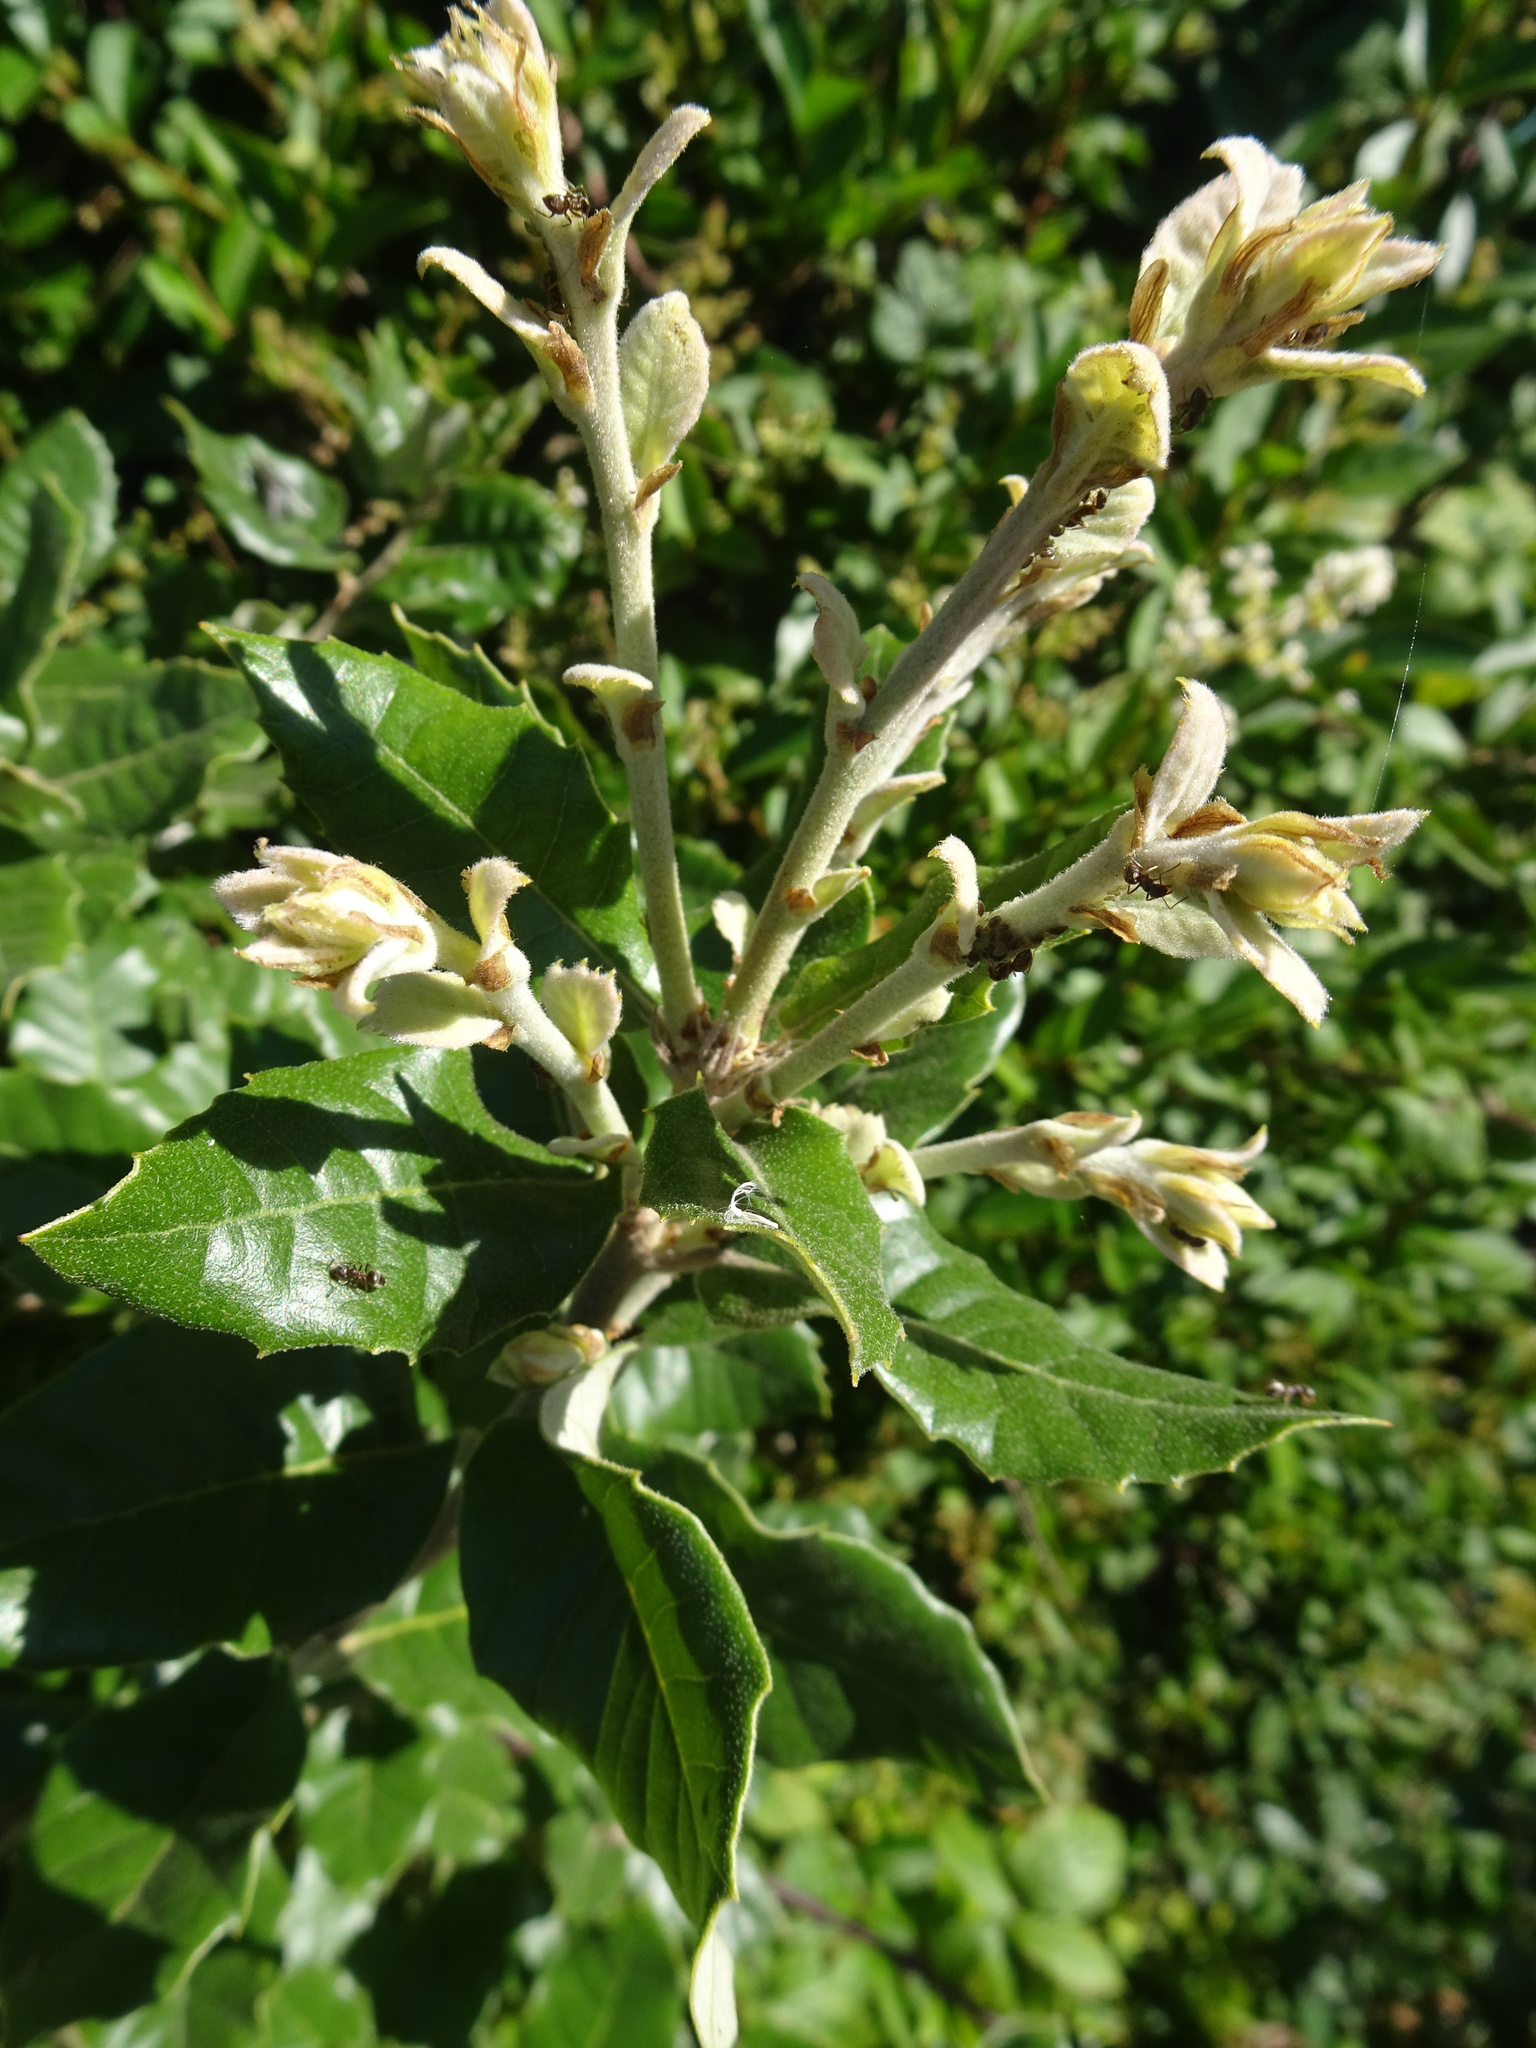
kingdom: Plantae
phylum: Tracheophyta
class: Magnoliopsida
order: Fagales
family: Fagaceae
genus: Quercus
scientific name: Quercus ilex
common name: Evergreen oak
